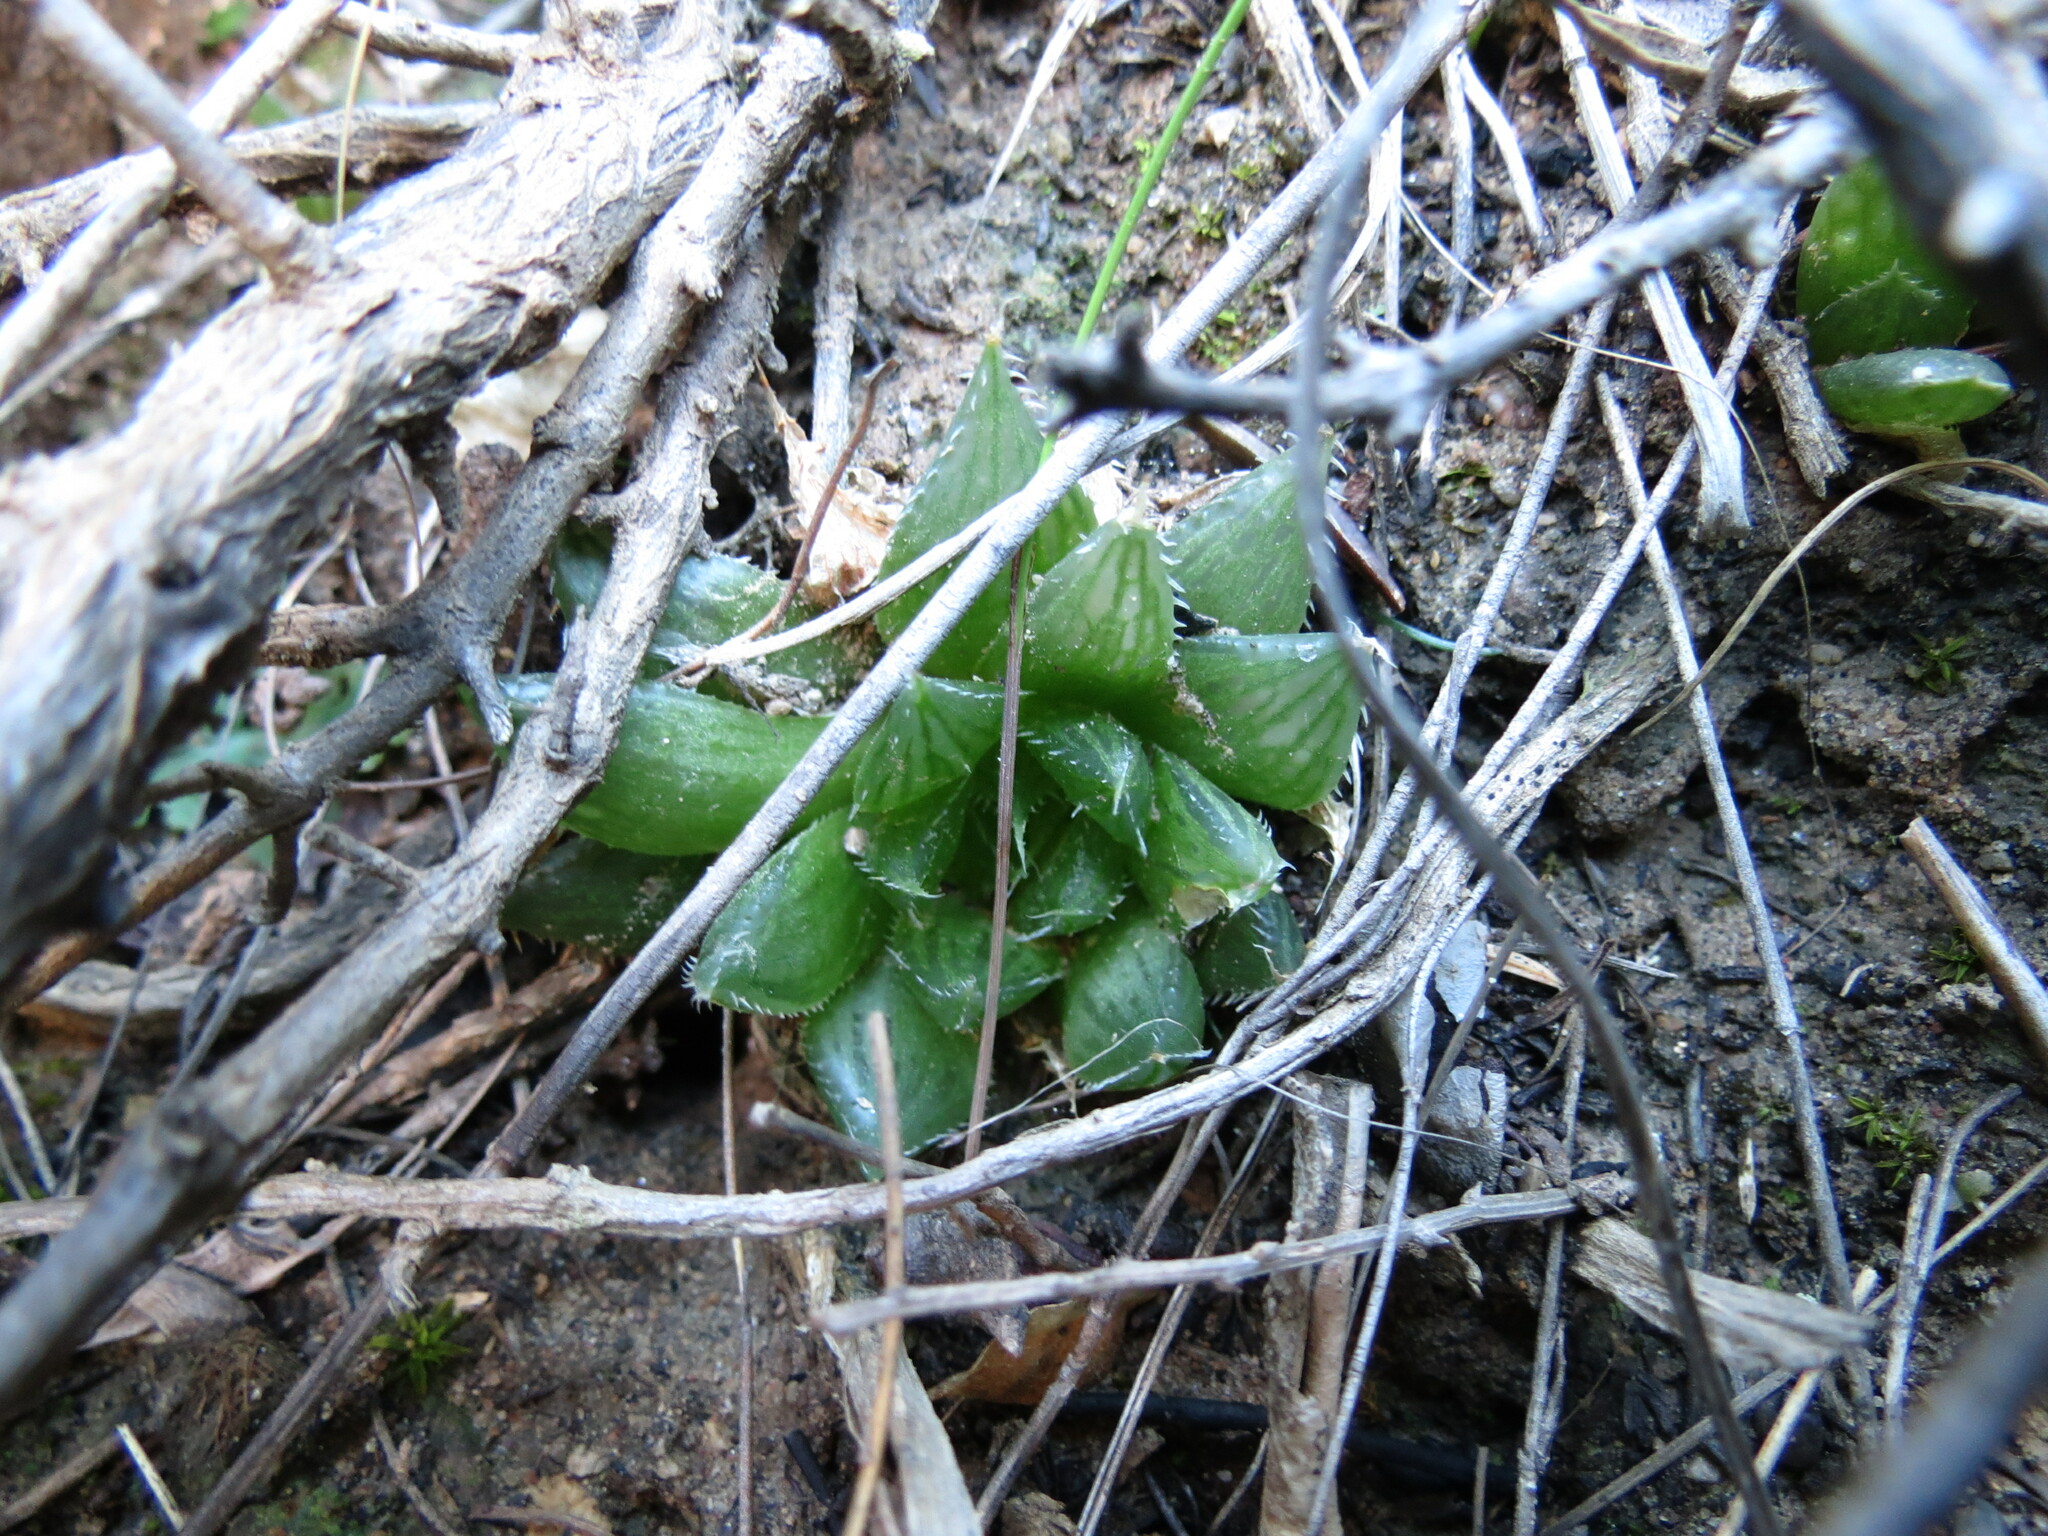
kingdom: Plantae
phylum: Tracheophyta
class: Liliopsida
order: Asparagales
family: Asphodelaceae
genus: Haworthia
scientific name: Haworthia mucronata
